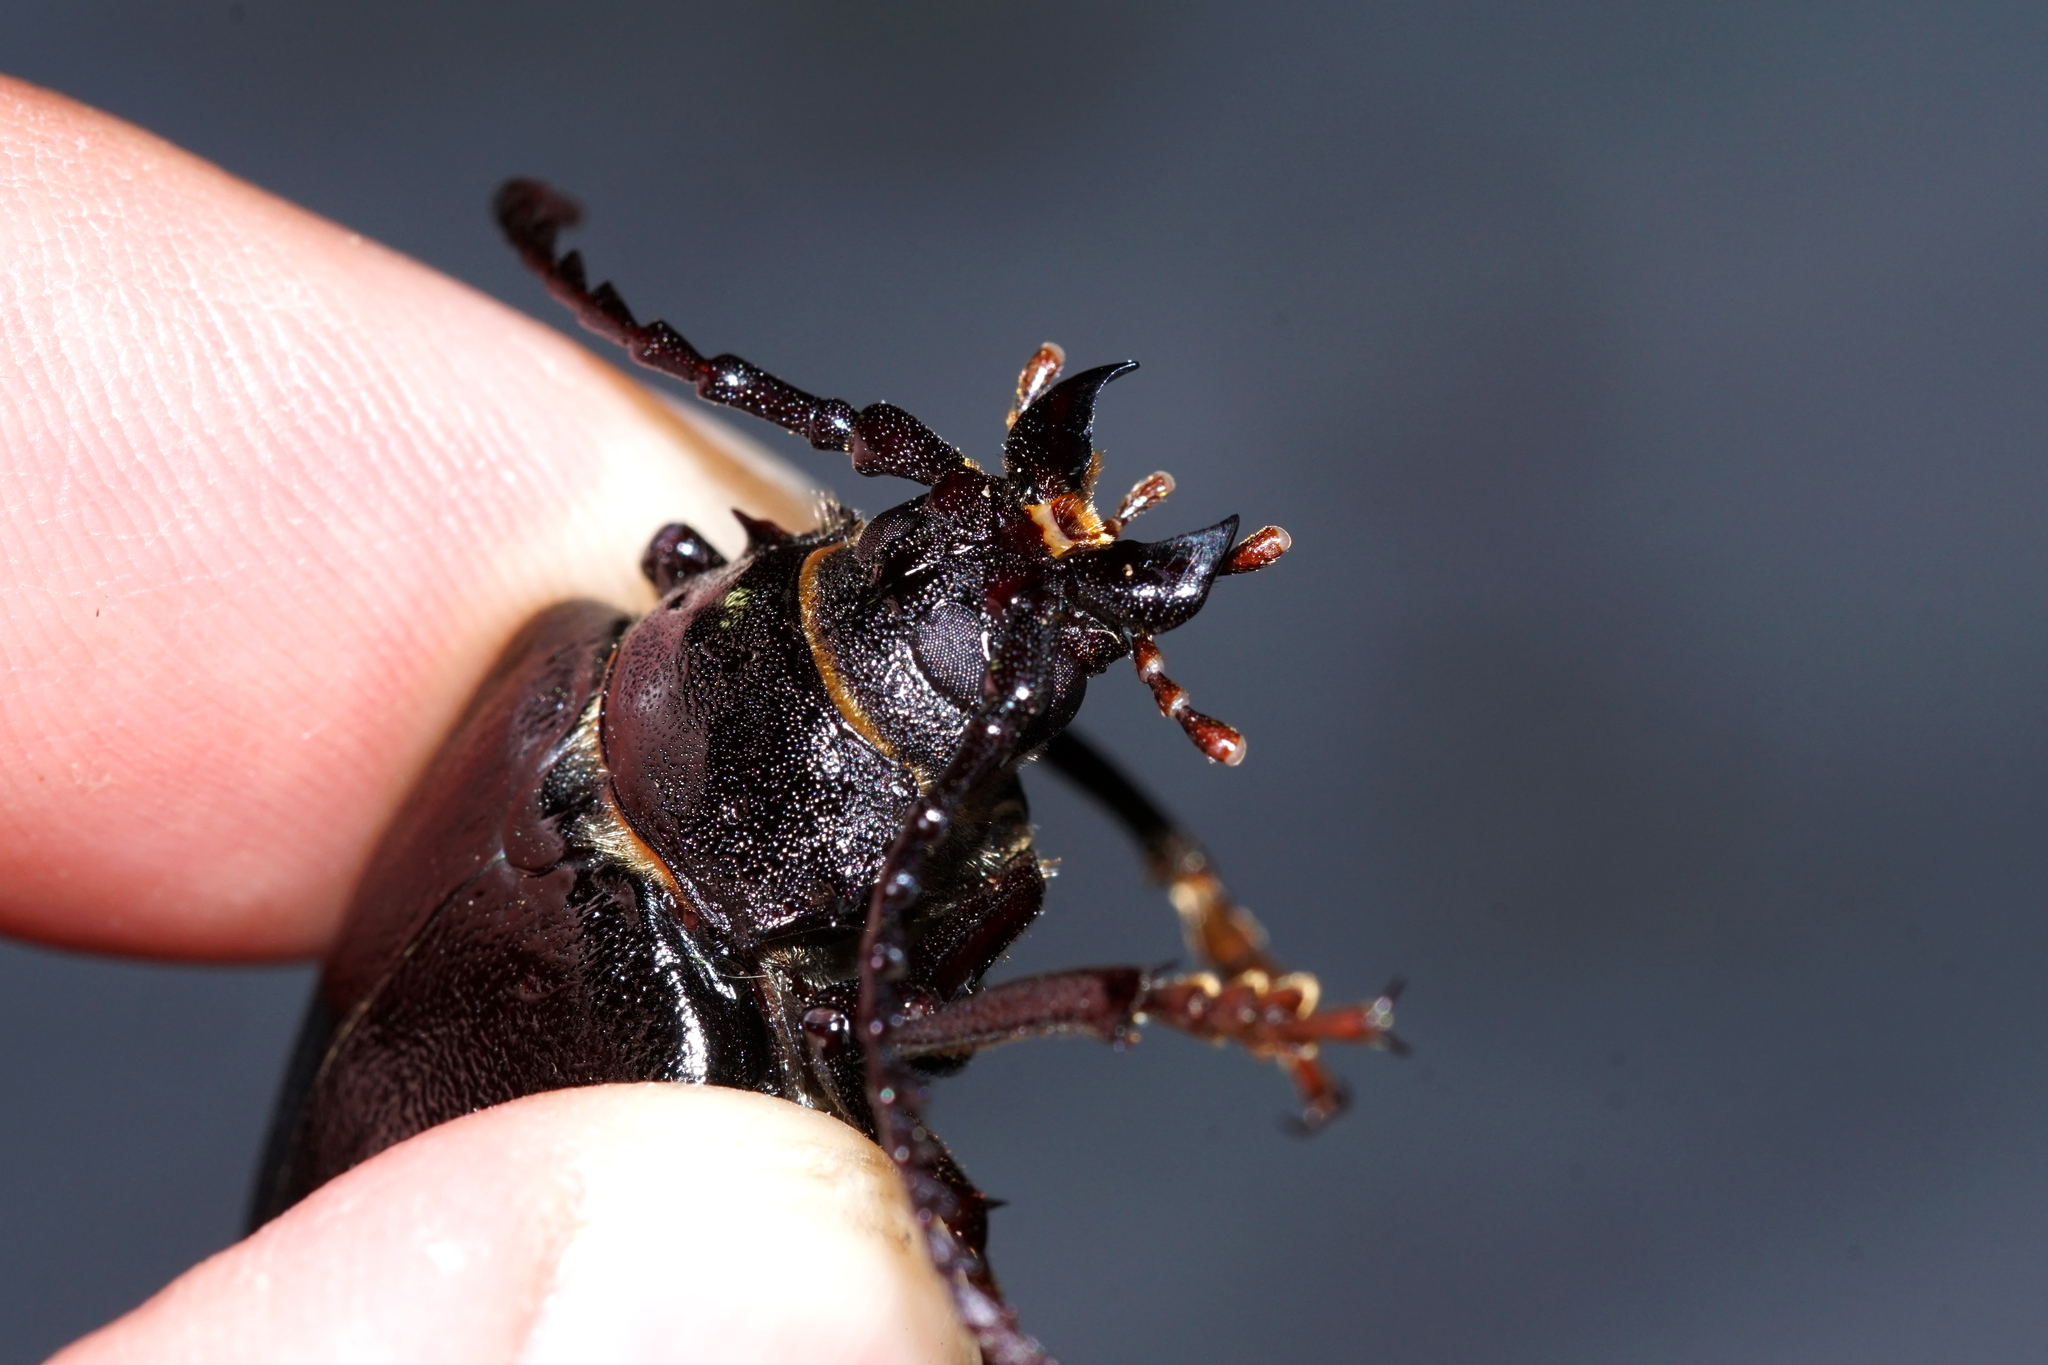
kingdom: Animalia
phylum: Arthropoda
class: Insecta
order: Coleoptera
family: Cerambycidae
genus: Prionus
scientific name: Prionus coriarius
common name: Tanner beetle
